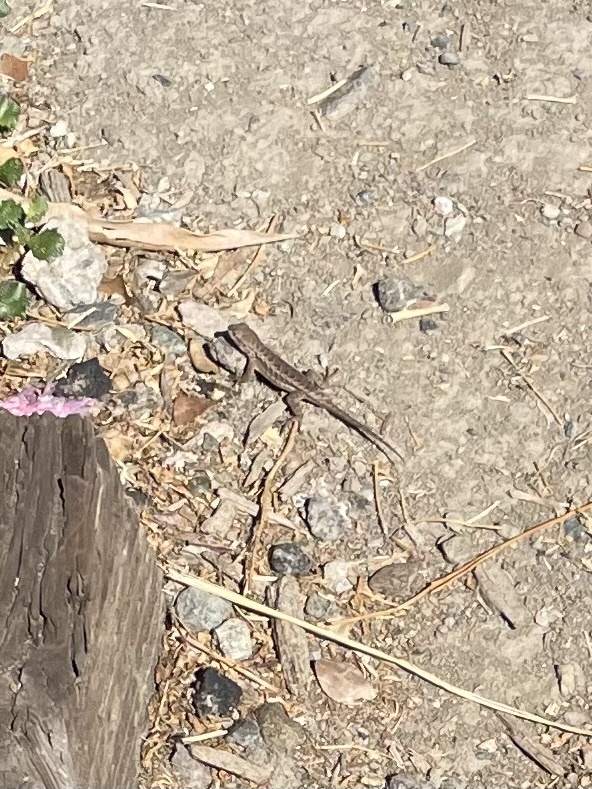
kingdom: Animalia
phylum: Chordata
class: Squamata
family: Phrynosomatidae
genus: Sceloporus
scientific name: Sceloporus occidentalis
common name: Western fence lizard
